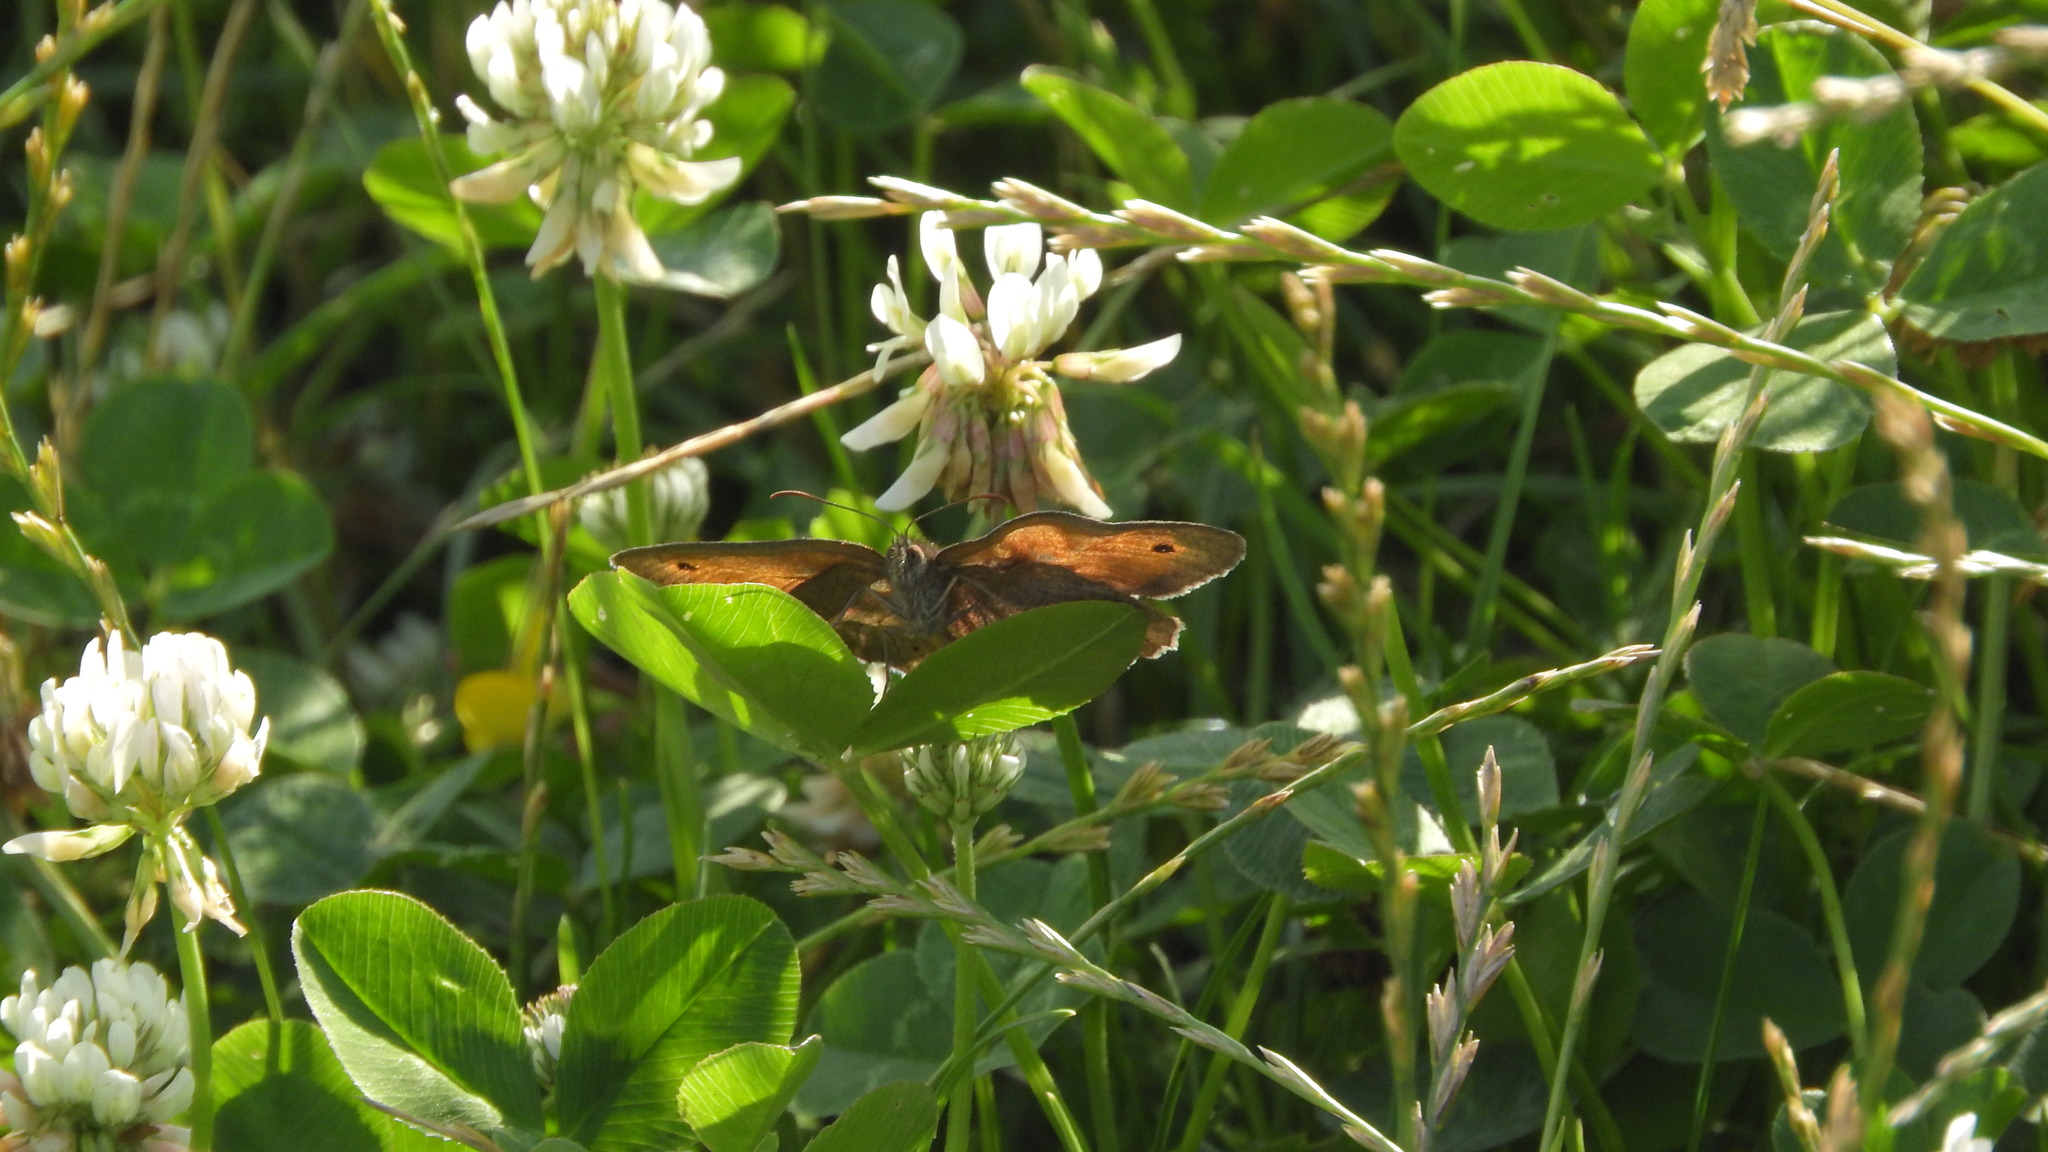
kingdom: Animalia
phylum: Arthropoda
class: Insecta
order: Lepidoptera
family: Nymphalidae
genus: Maniola
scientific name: Maniola jurtina
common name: Meadow brown
